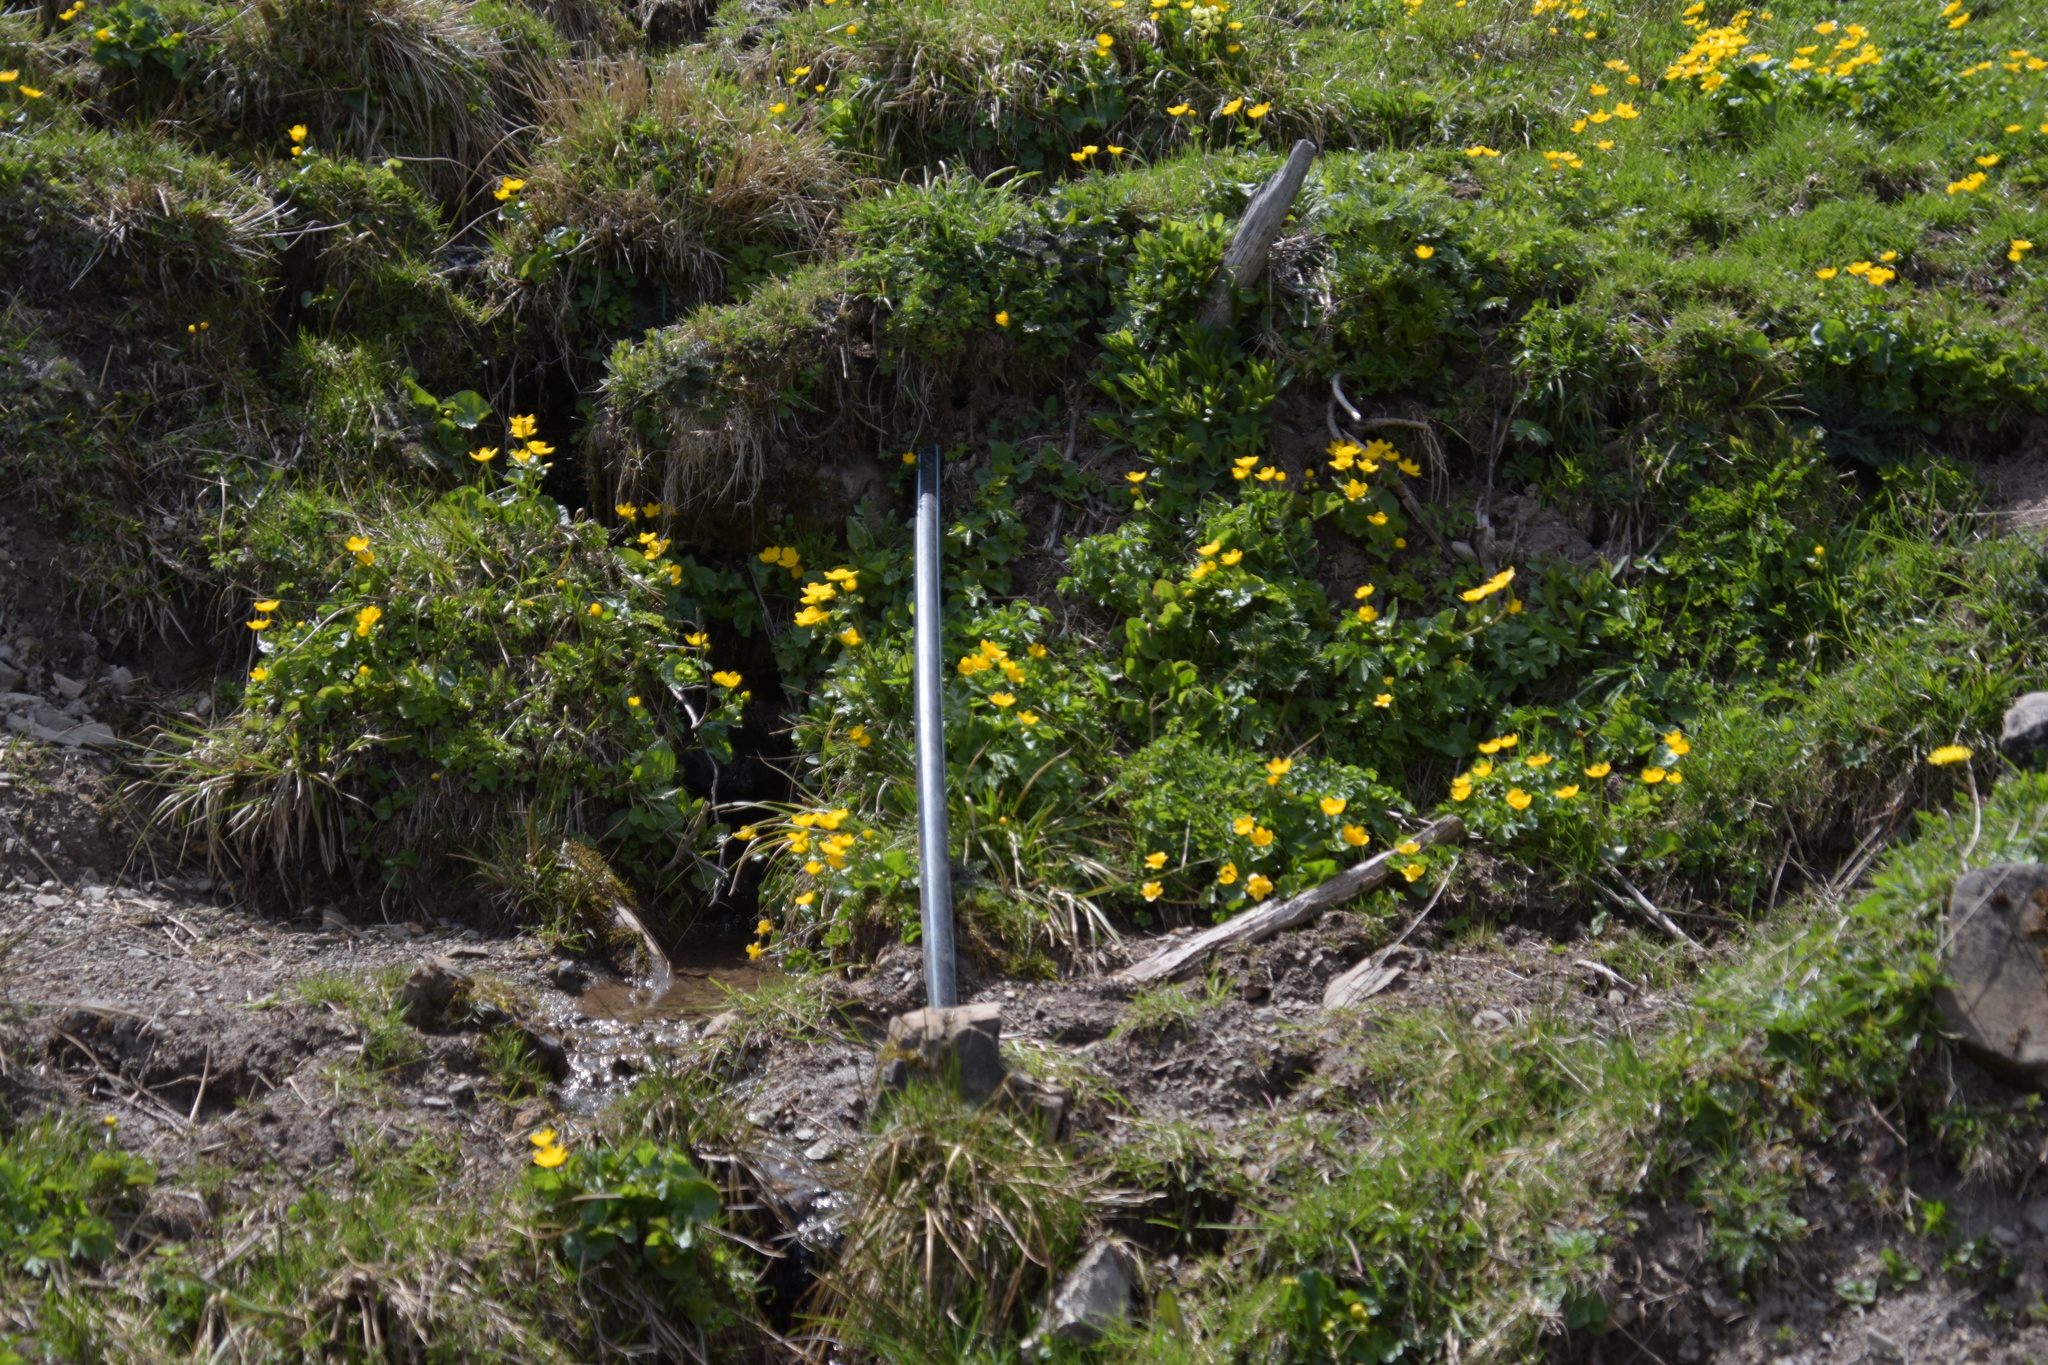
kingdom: Plantae
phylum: Tracheophyta
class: Magnoliopsida
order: Ranunculales
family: Ranunculaceae
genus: Caltha
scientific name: Caltha palustris
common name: Marsh marigold
